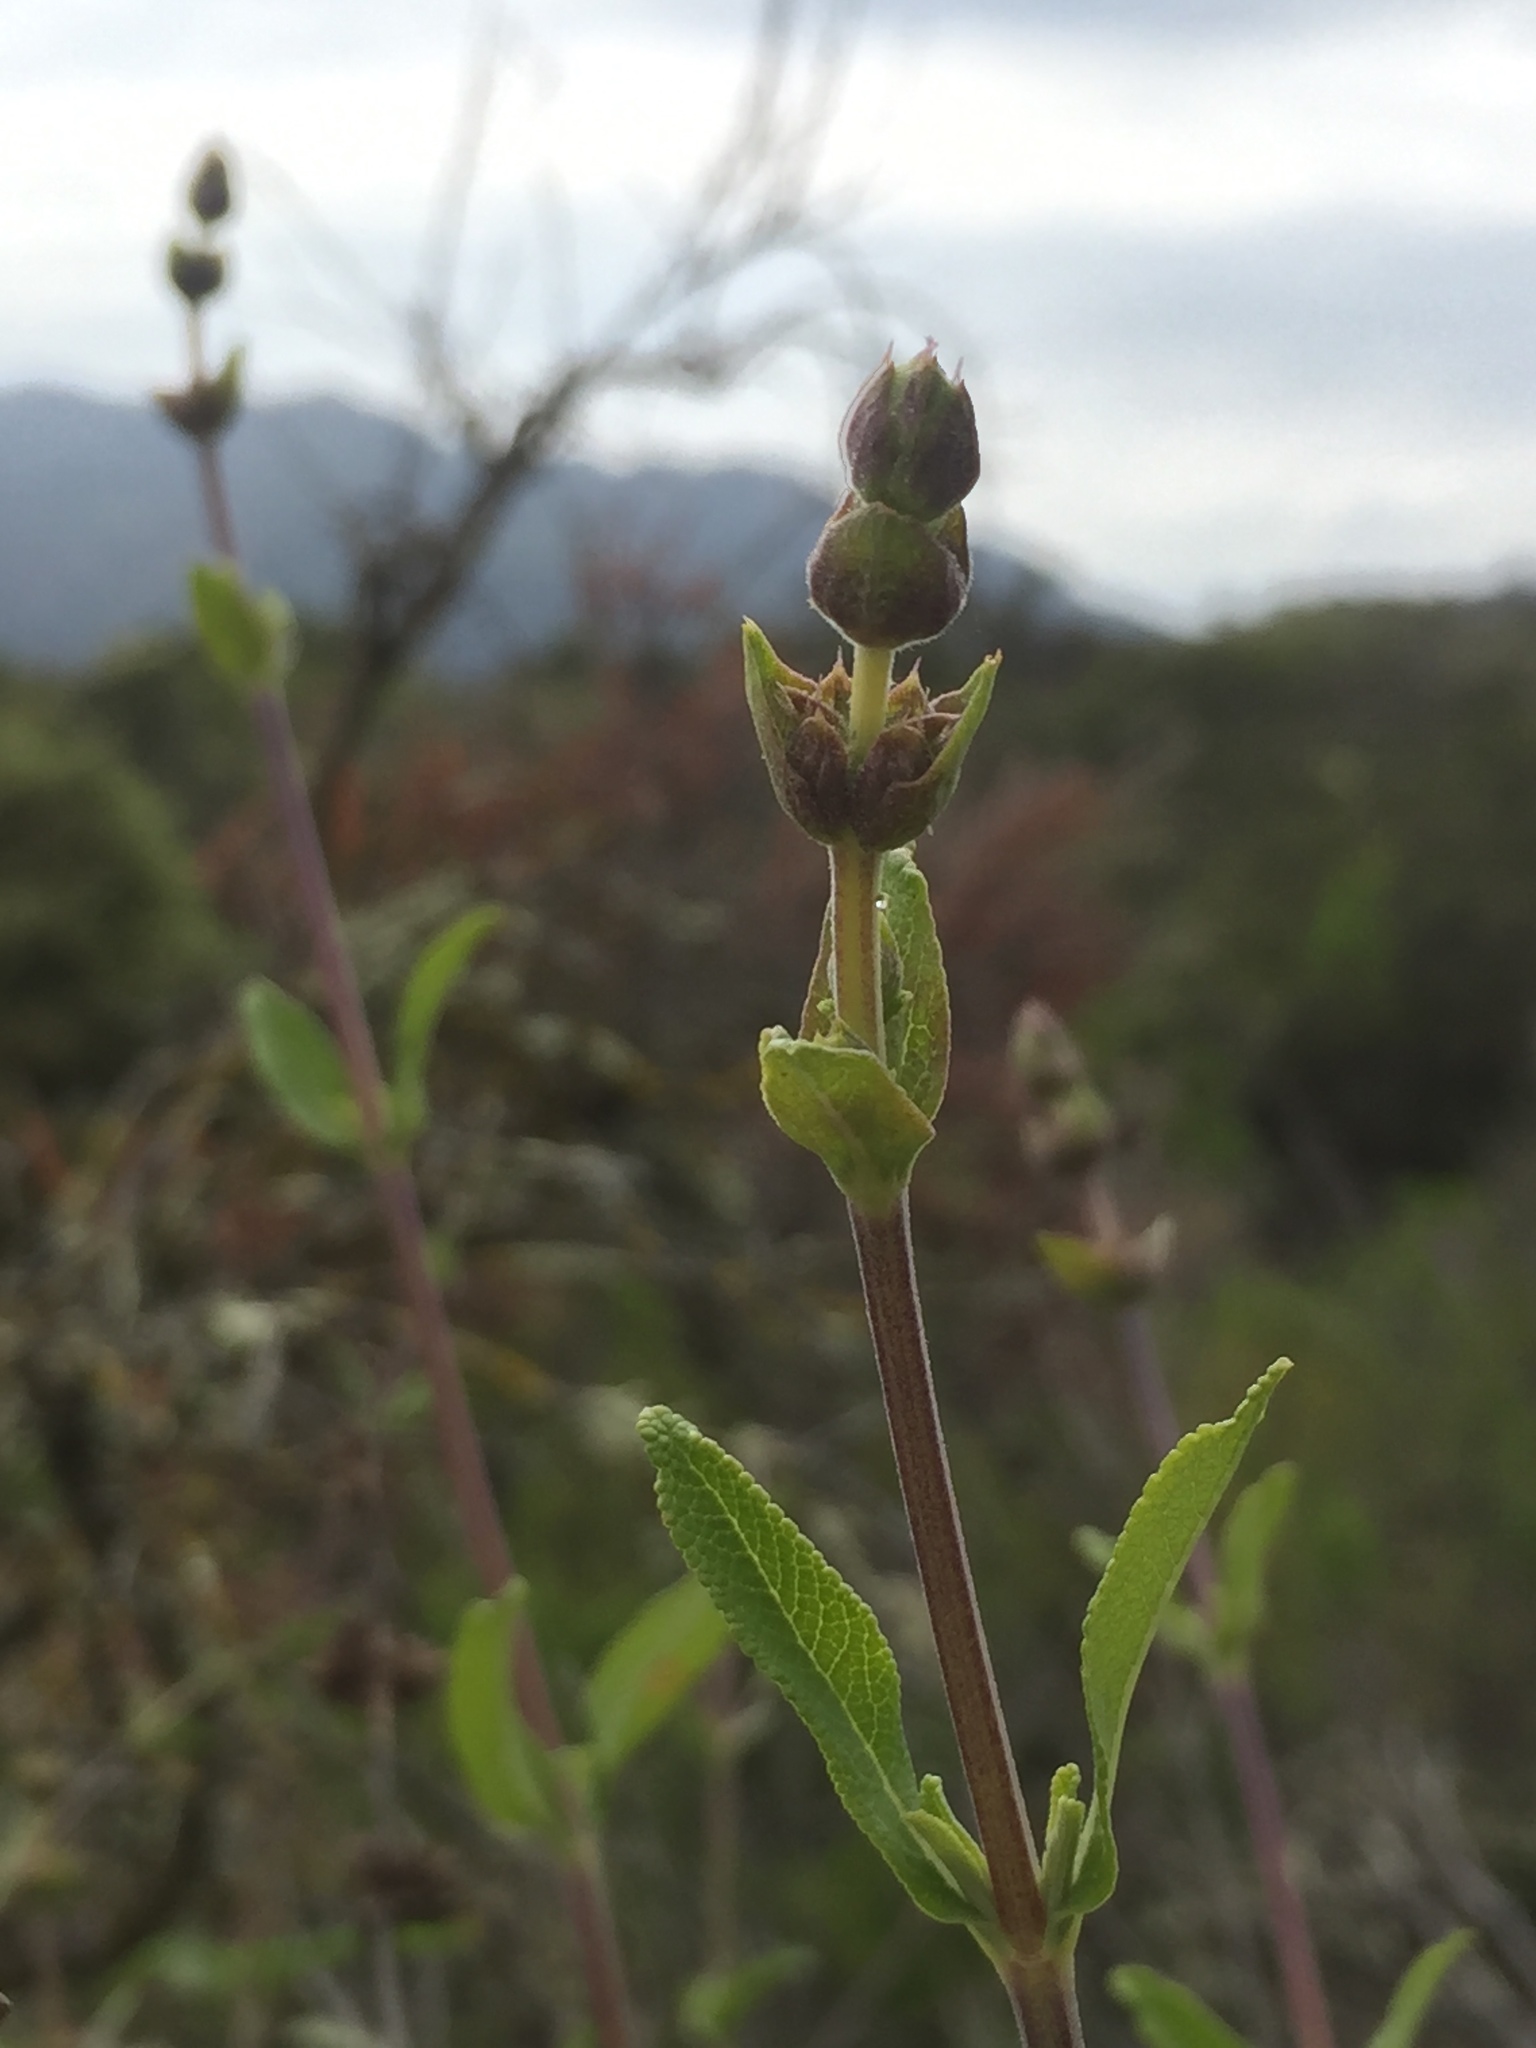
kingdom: Plantae
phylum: Tracheophyta
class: Magnoliopsida
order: Lamiales
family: Lamiaceae
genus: Salvia
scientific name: Salvia mellifera
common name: Black sage
